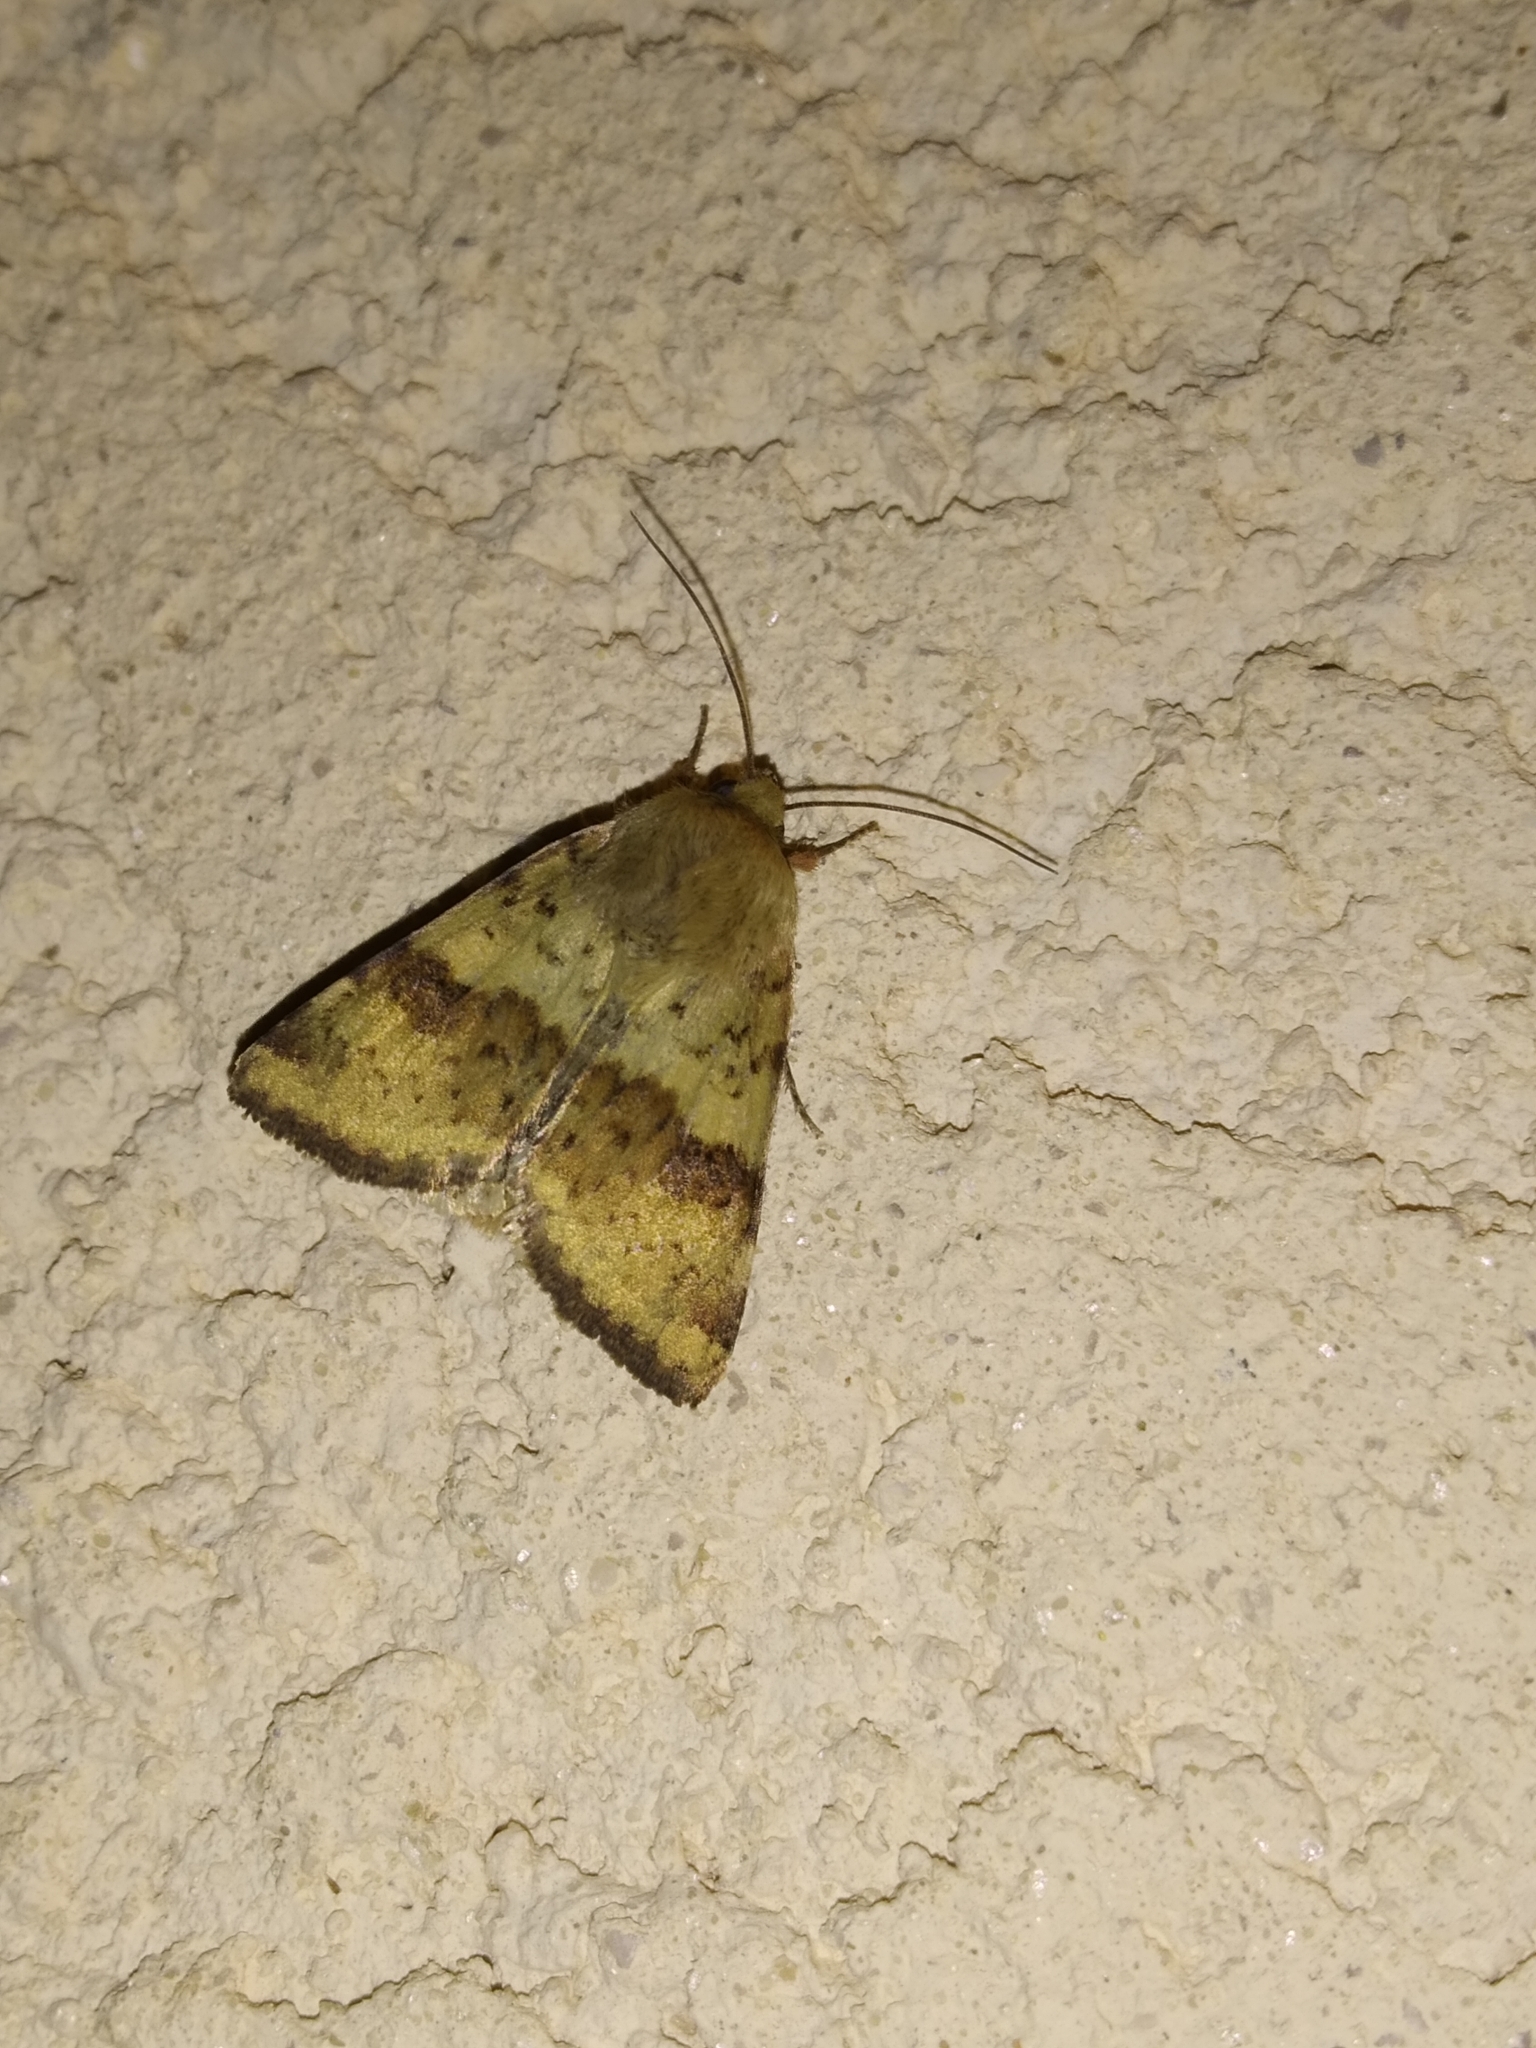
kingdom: Animalia
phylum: Arthropoda
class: Insecta
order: Lepidoptera
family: Noctuidae
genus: Heliothis
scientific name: Heliothis viriplaca
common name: Marbled clover
